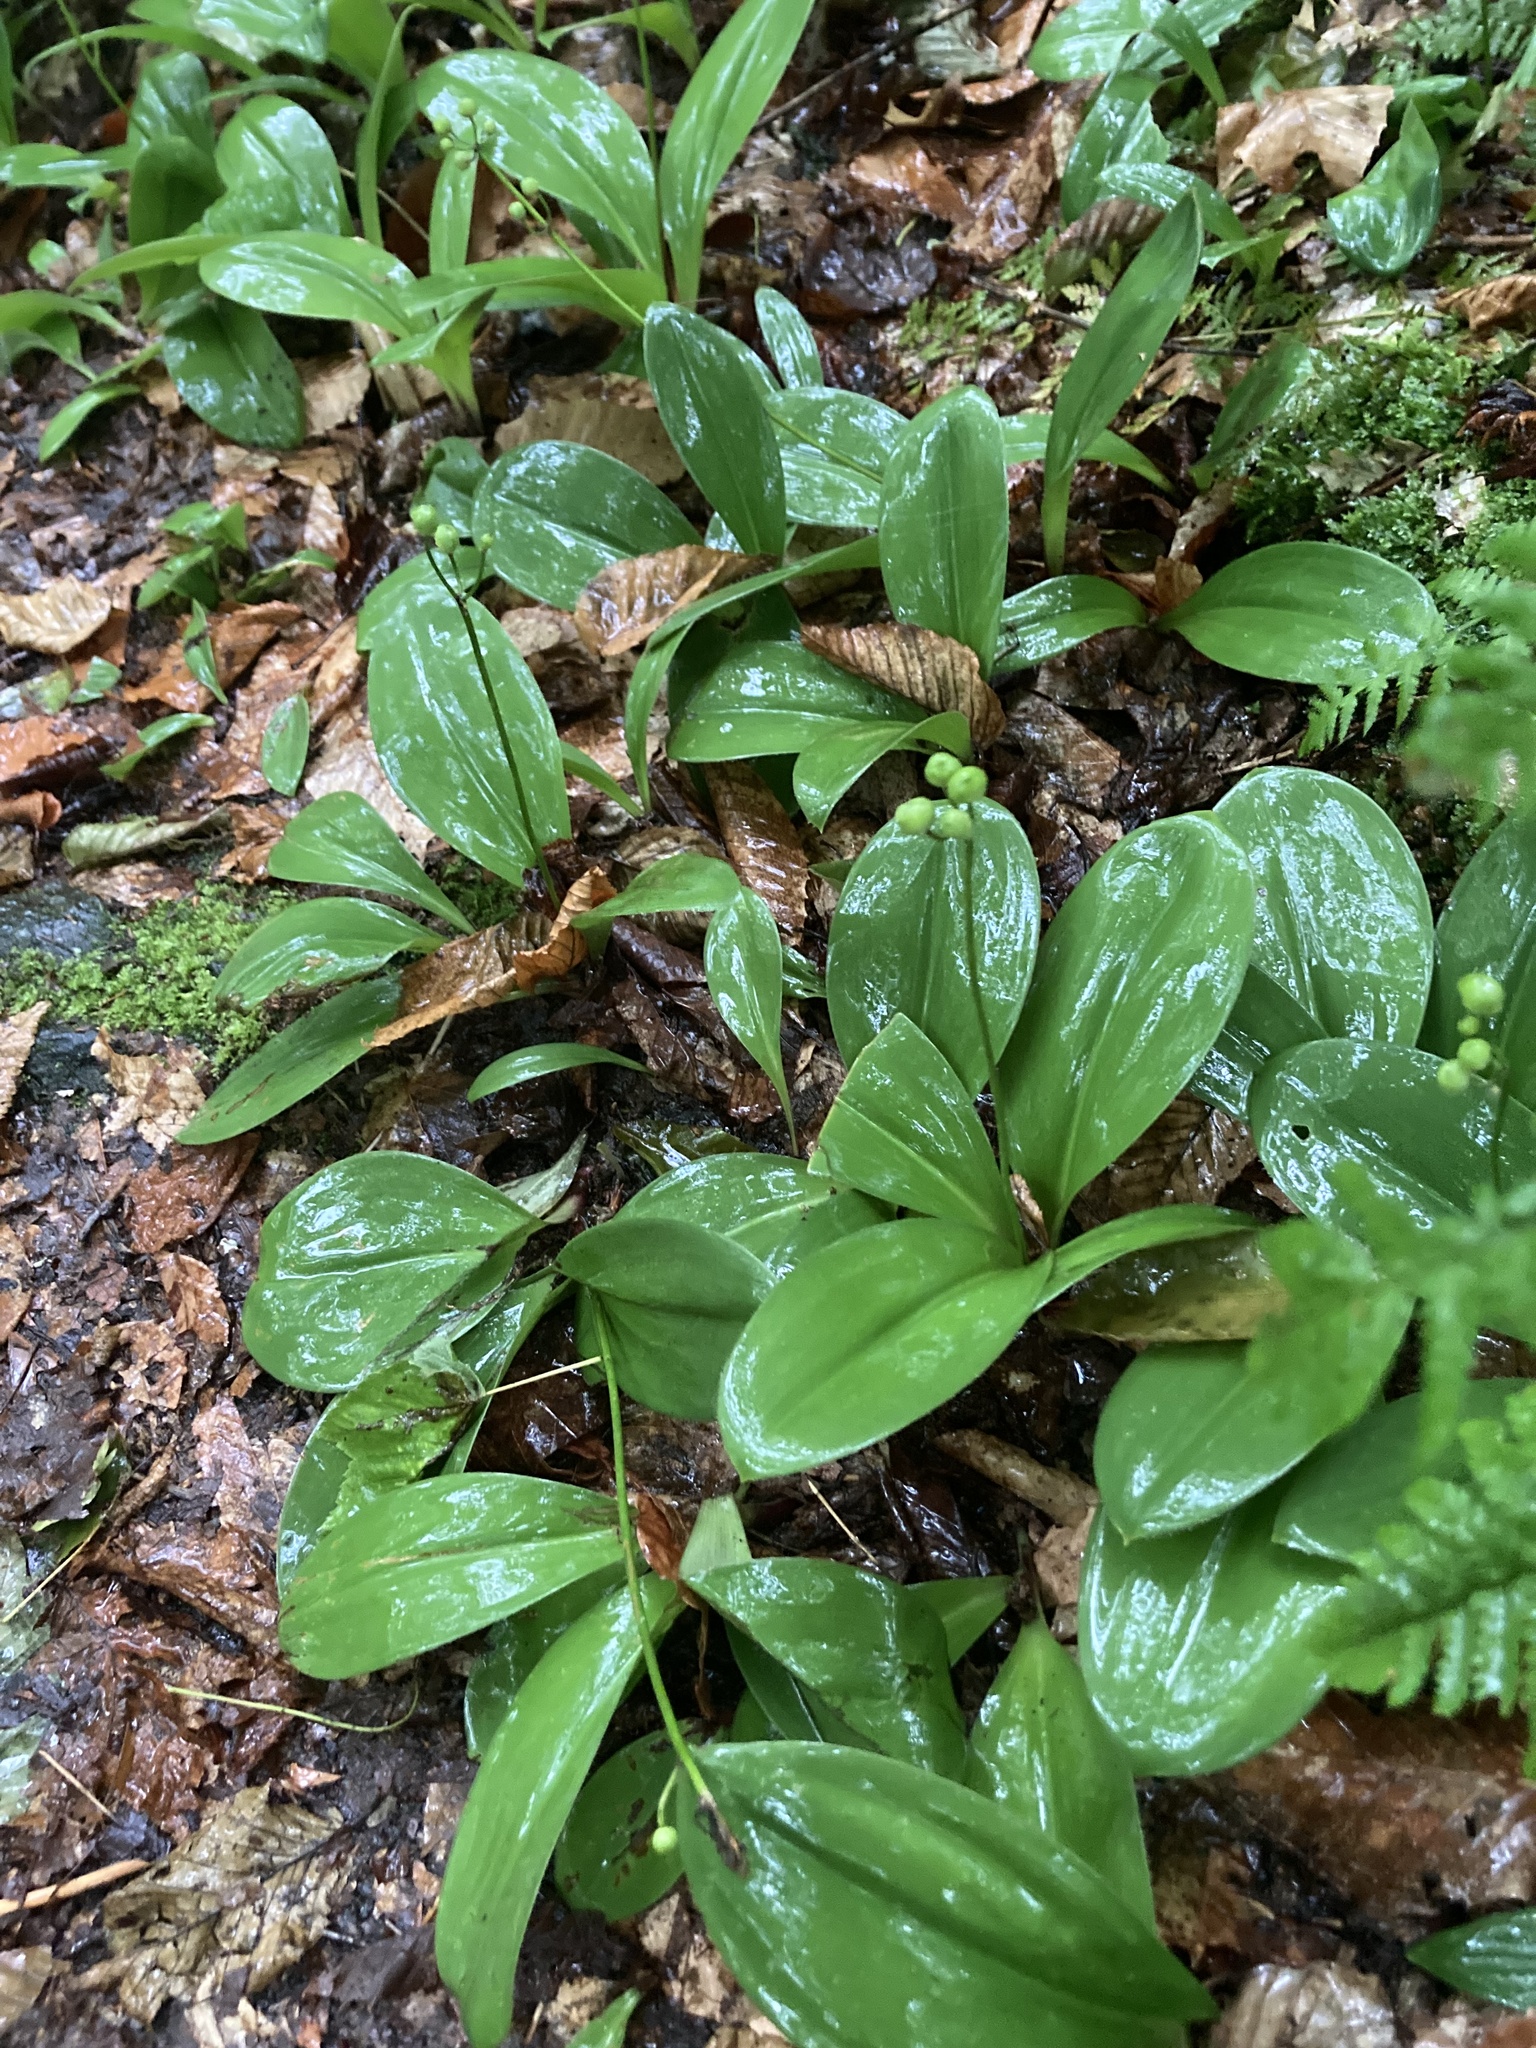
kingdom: Plantae
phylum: Tracheophyta
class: Liliopsida
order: Liliales
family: Liliaceae
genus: Clintonia
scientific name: Clintonia borealis
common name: Yellow clintonia
